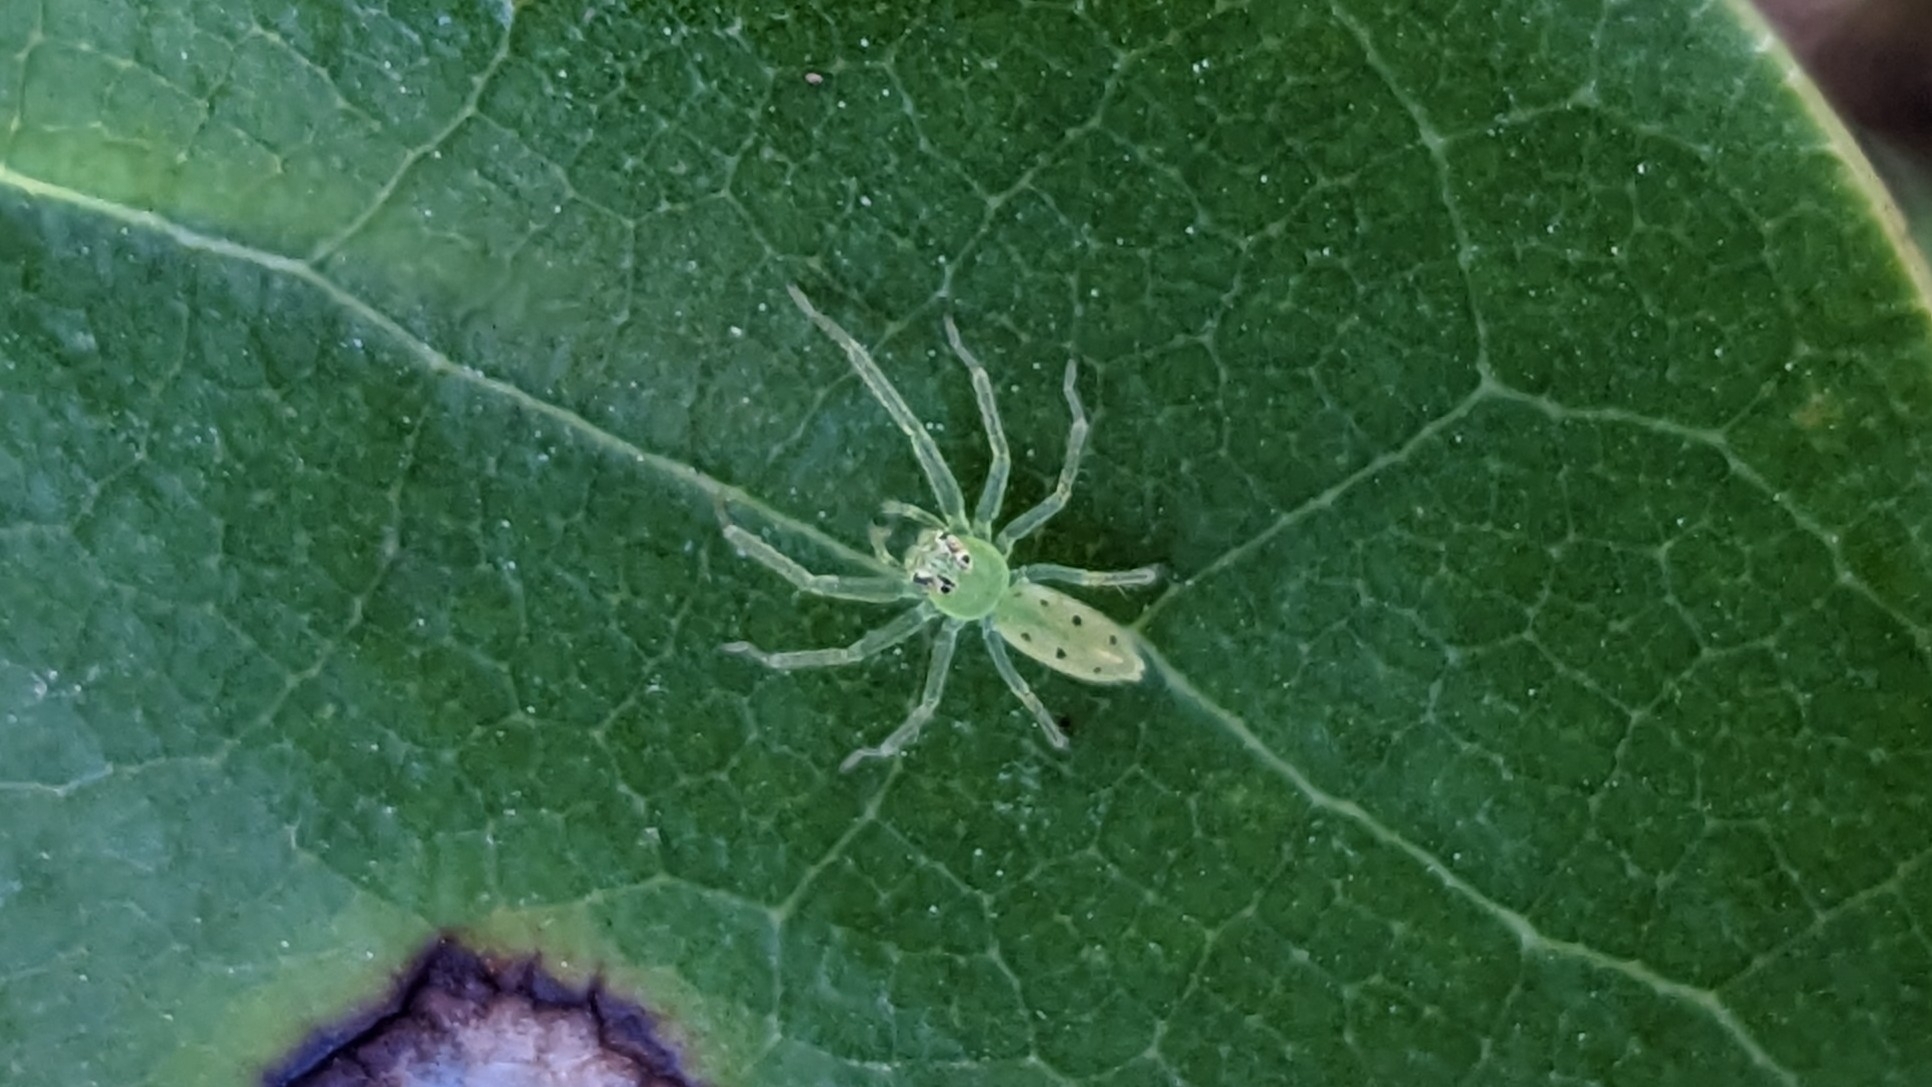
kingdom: Animalia
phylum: Arthropoda
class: Arachnida
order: Araneae
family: Salticidae
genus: Lyssomanes
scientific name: Lyssomanes viridis
